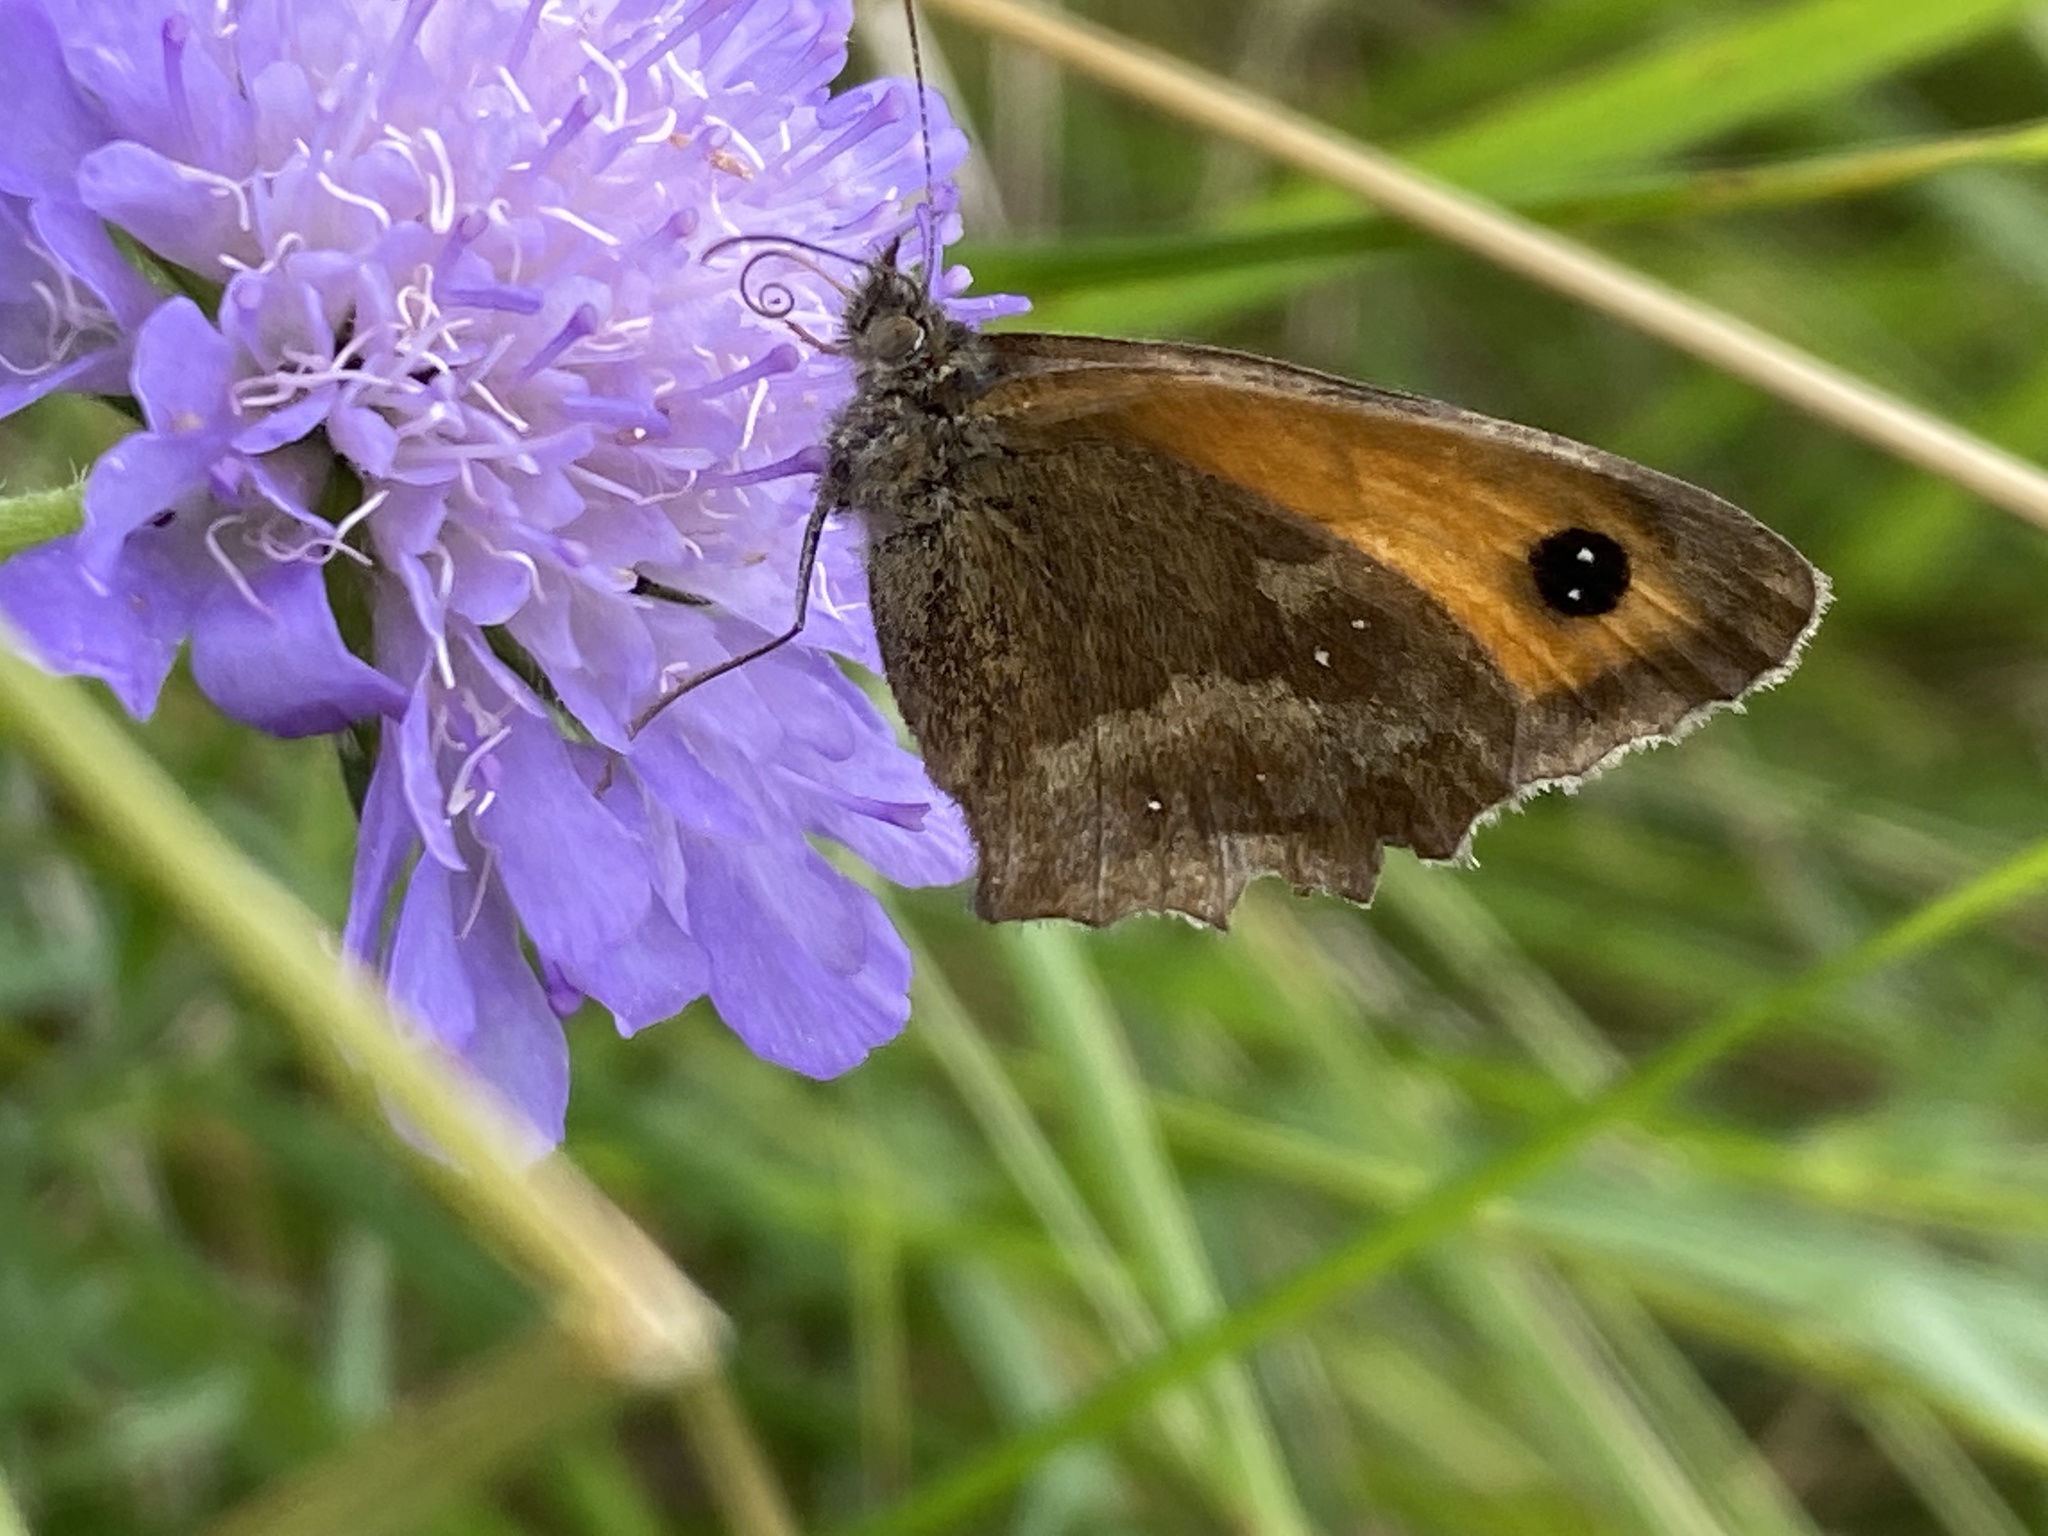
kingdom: Animalia
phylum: Arthropoda
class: Insecta
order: Lepidoptera
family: Nymphalidae
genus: Pyronia
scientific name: Pyronia tithonus
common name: Gatekeeper
